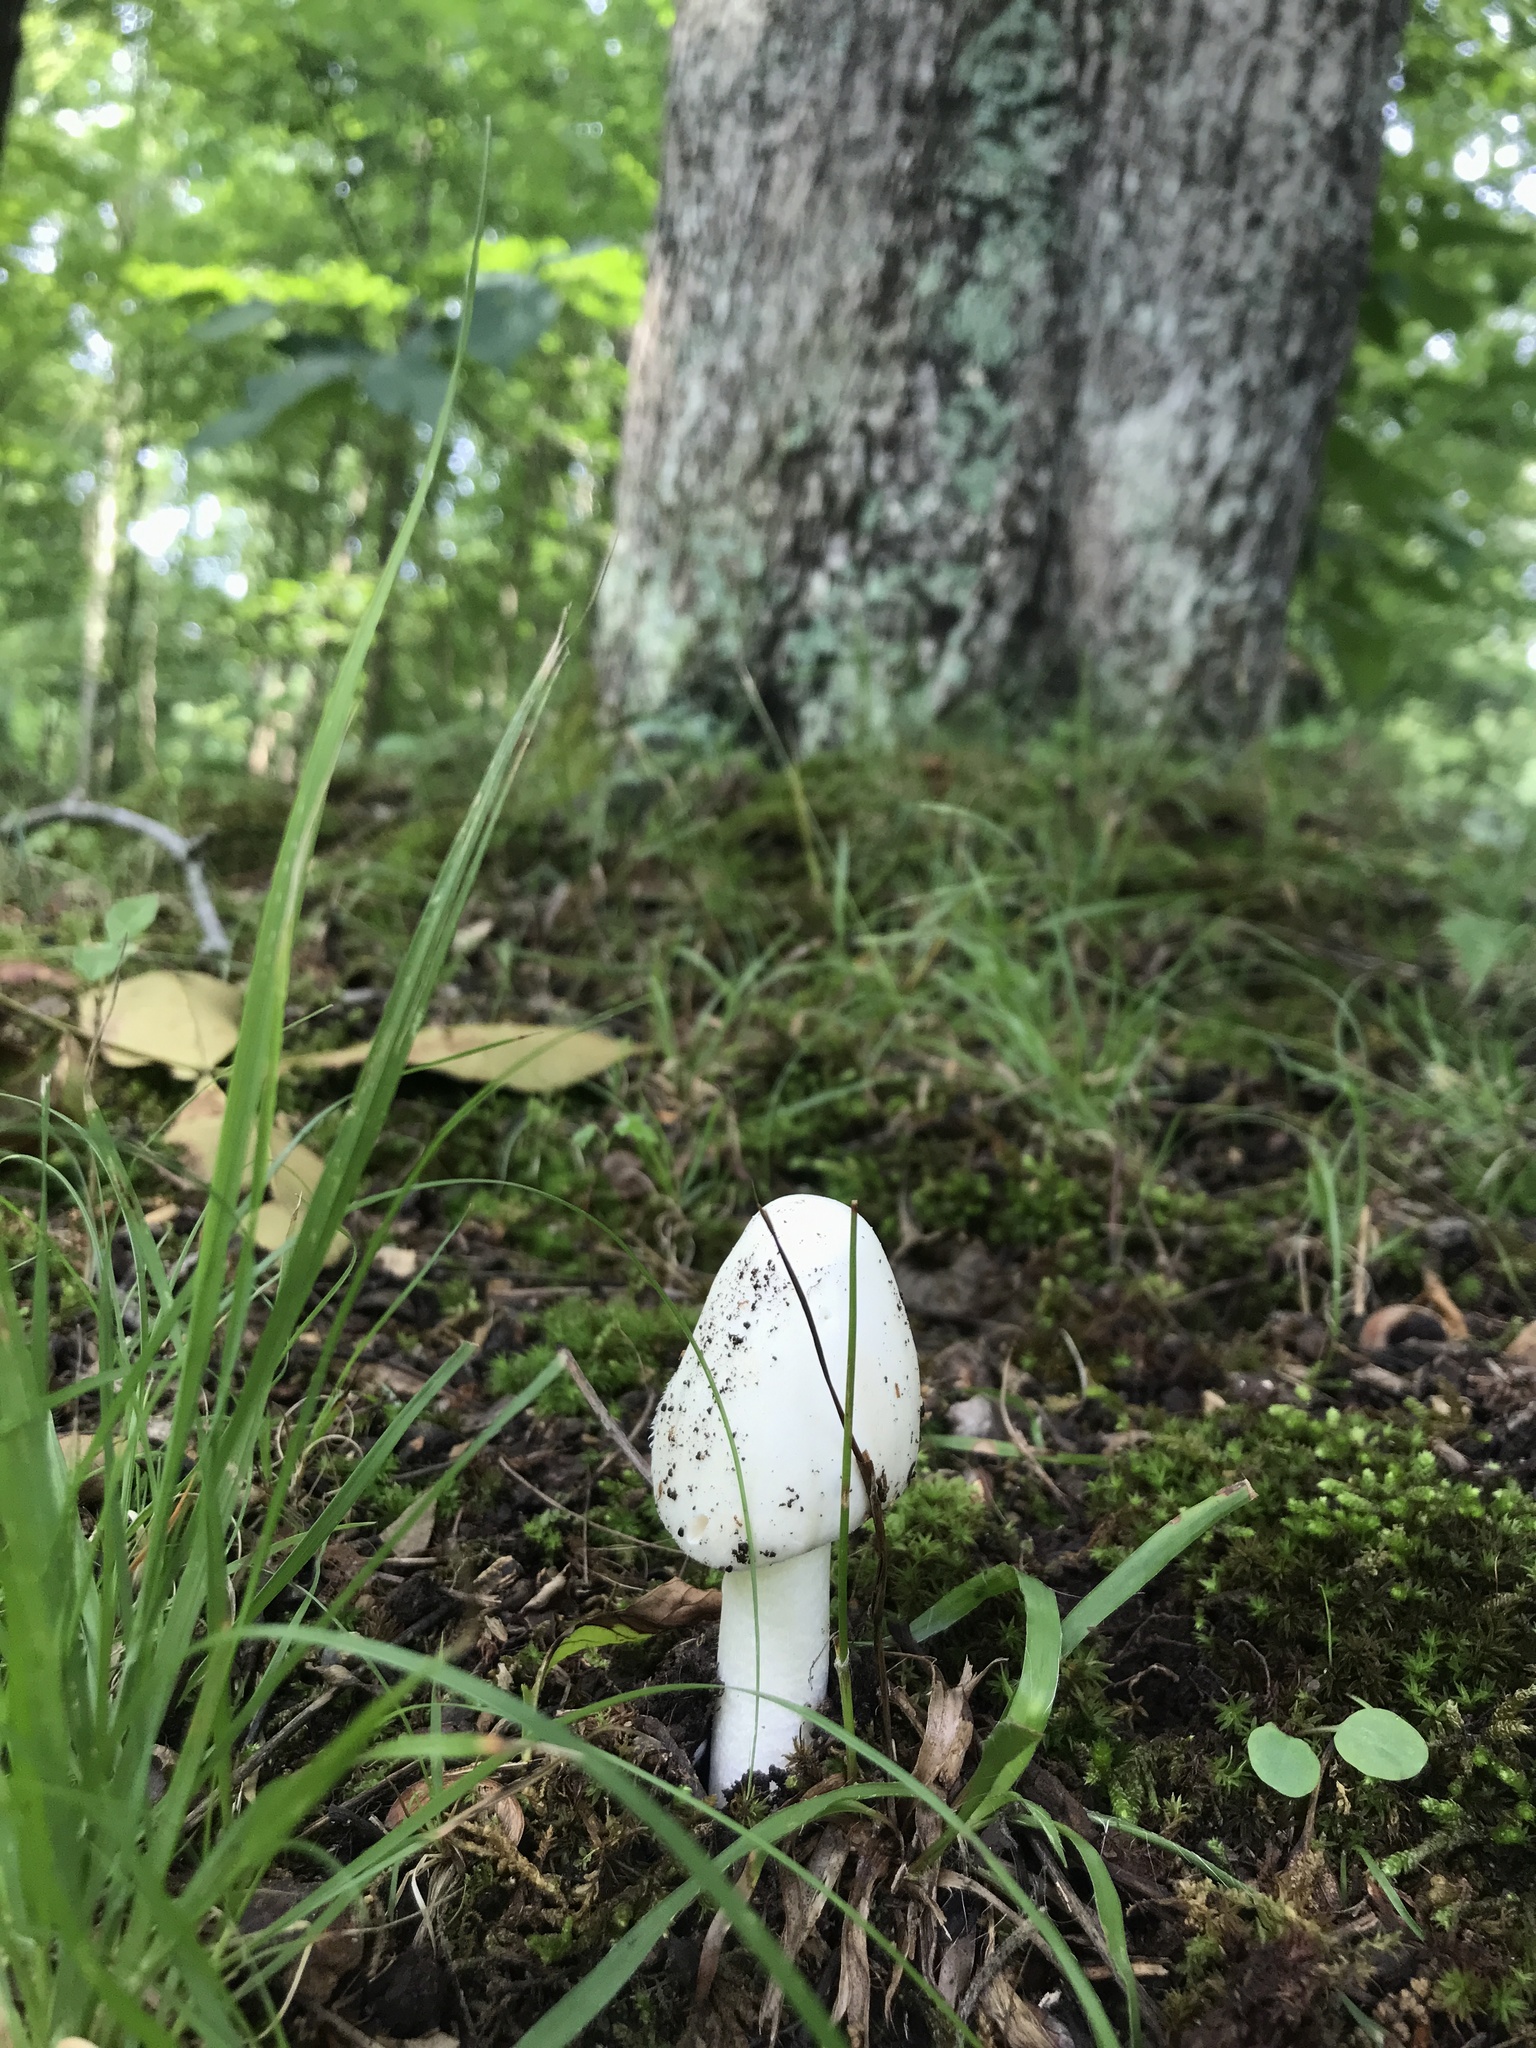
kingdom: Fungi
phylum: Basidiomycota
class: Agaricomycetes
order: Agaricales
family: Amanitaceae
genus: Amanita
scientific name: Amanita bisporigera
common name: Eastern north american destroying angel
